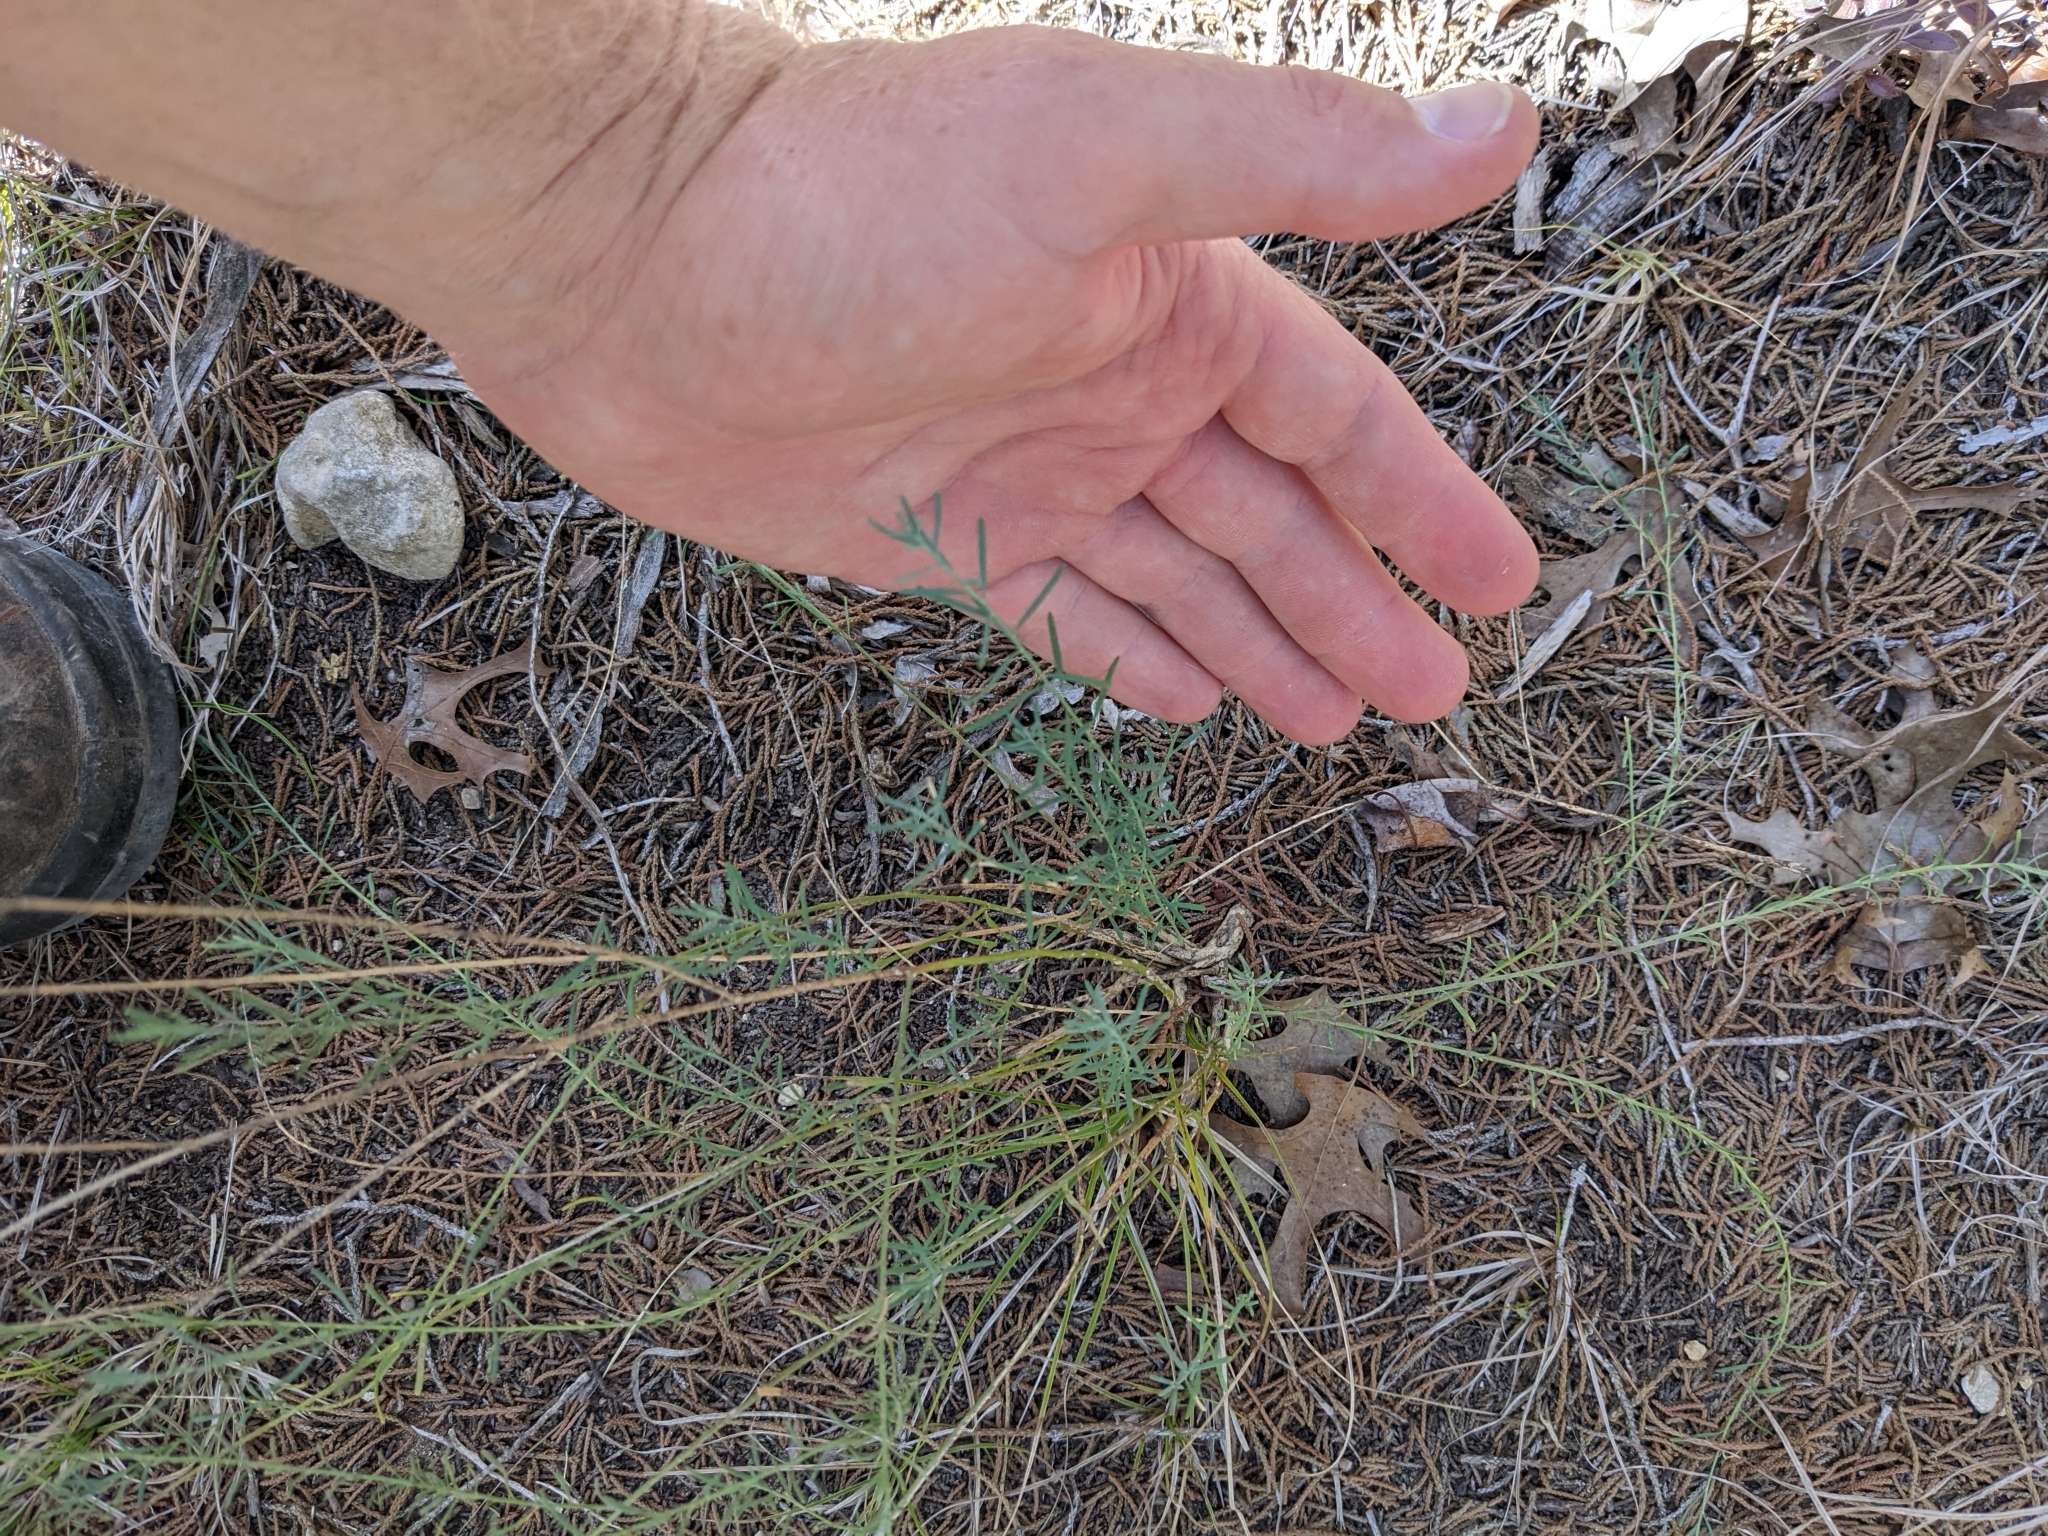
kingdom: Plantae
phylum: Tracheophyta
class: Magnoliopsida
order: Sapindales
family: Rutaceae
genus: Thamnosma
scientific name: Thamnosma texana
